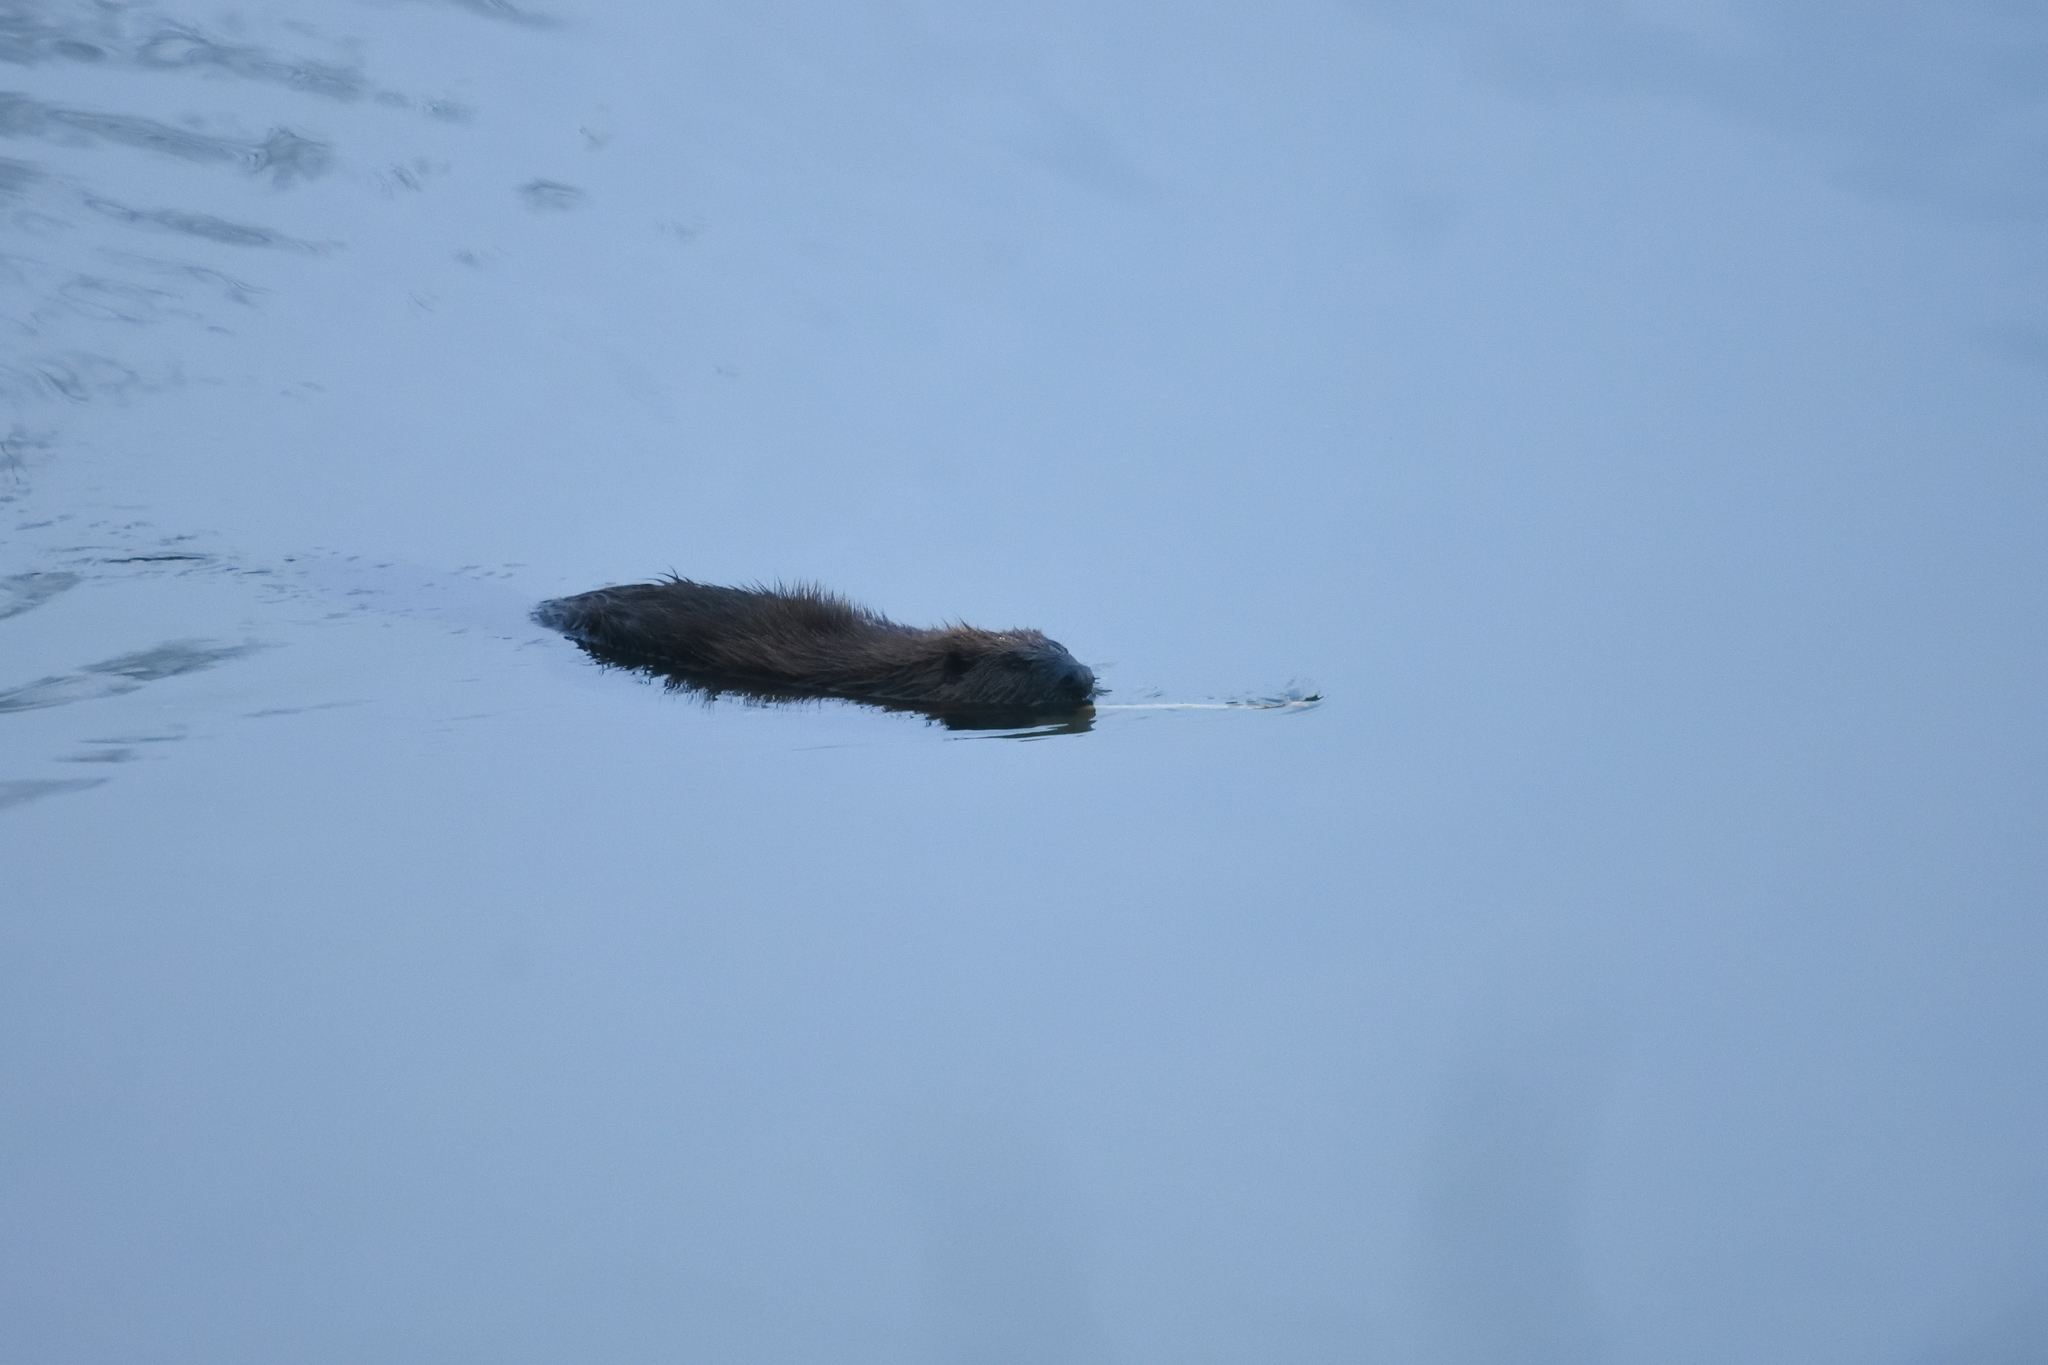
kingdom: Animalia
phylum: Chordata
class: Mammalia
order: Rodentia
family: Castoridae
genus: Castor
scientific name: Castor canadensis
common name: American beaver
